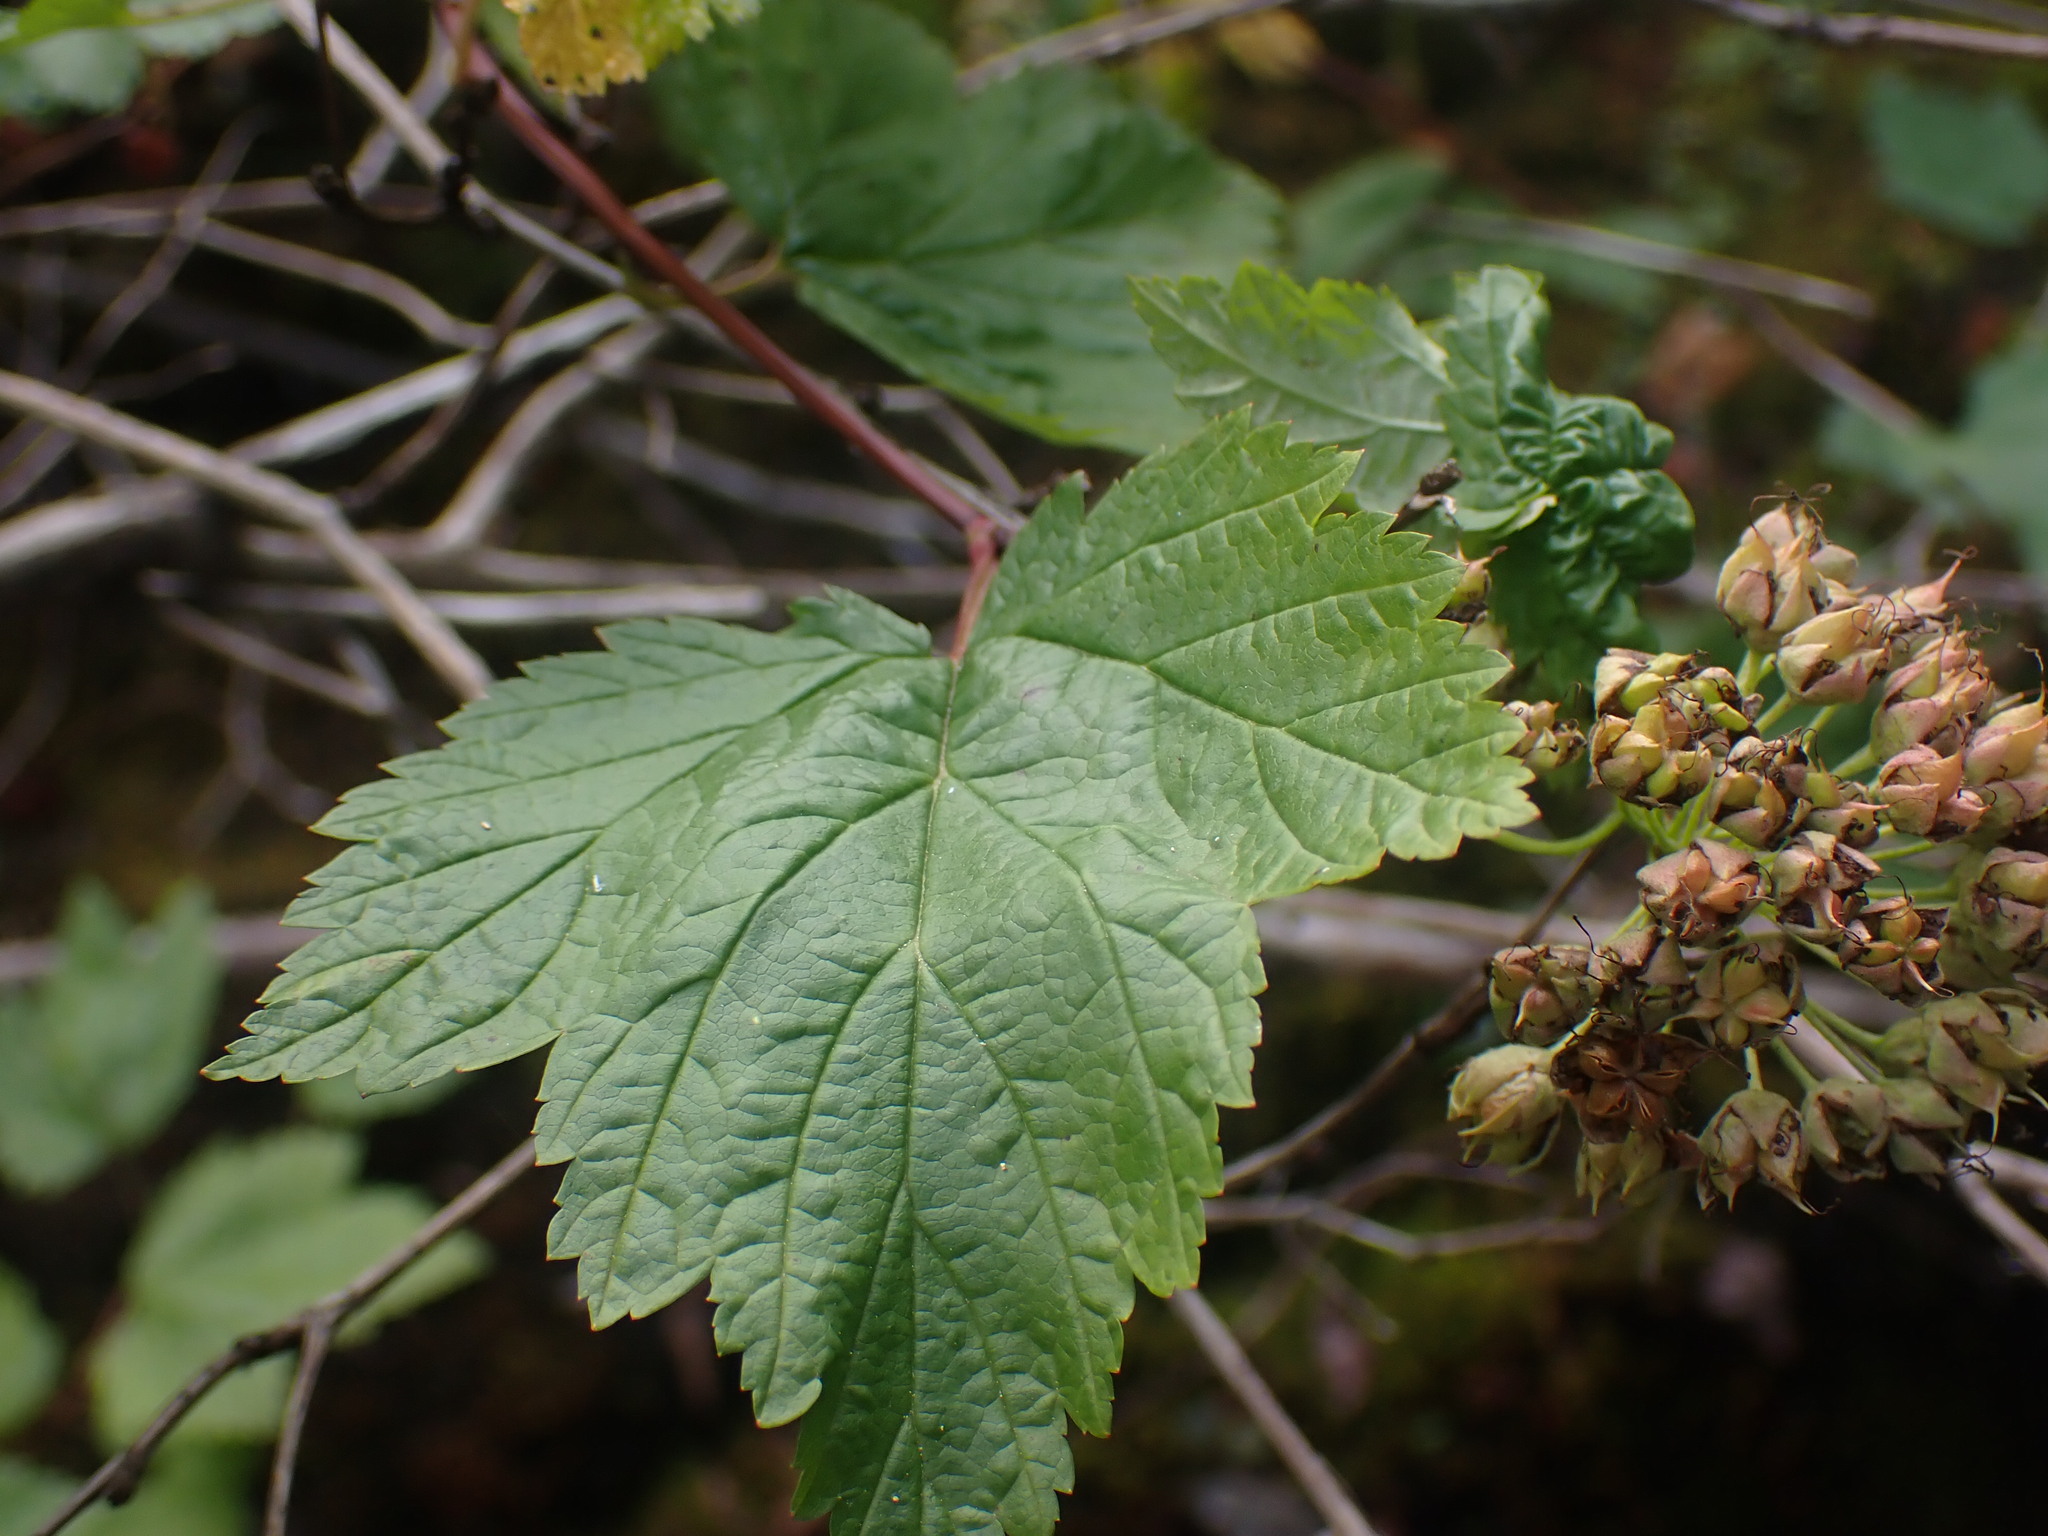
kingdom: Plantae
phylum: Tracheophyta
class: Magnoliopsida
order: Rosales
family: Rosaceae
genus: Physocarpus
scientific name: Physocarpus capitatus
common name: Pacific ninebark
